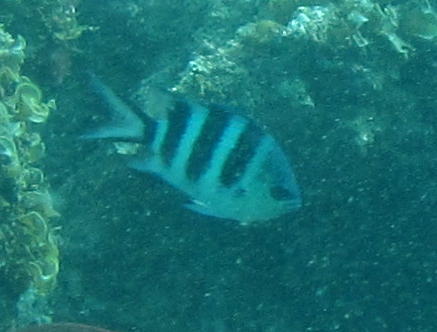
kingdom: Animalia
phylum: Chordata
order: Perciformes
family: Pomacentridae
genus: Abudefduf
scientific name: Abudefduf natalensis
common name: Natal sergeant
